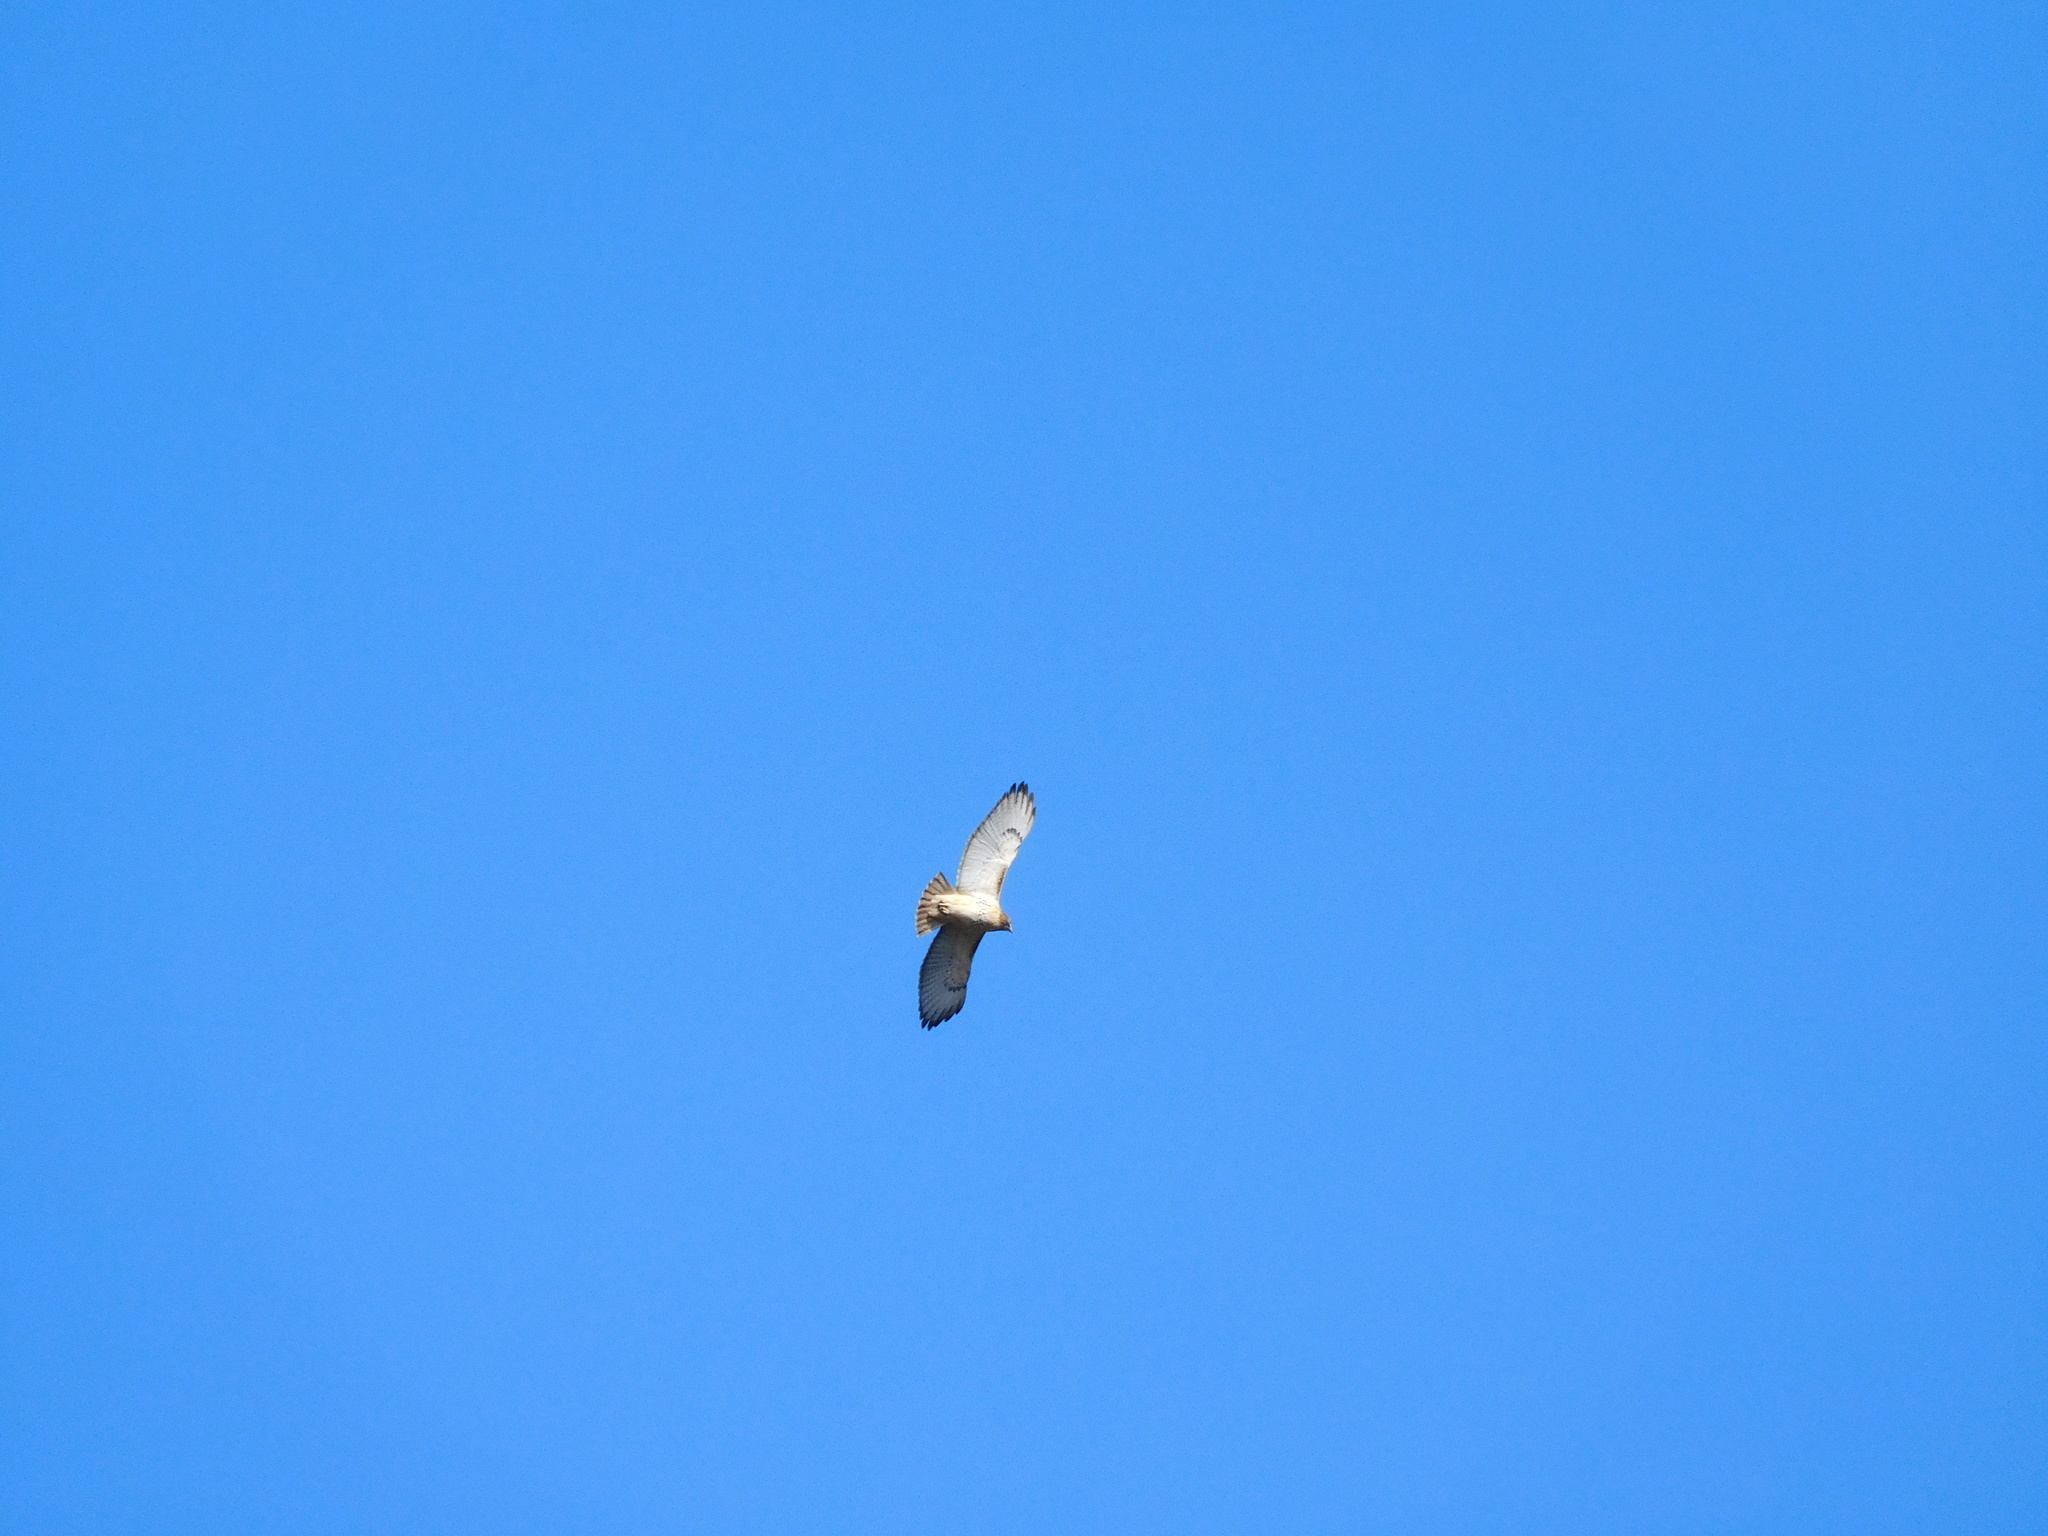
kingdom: Animalia
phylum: Chordata
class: Aves
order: Accipitriformes
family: Accipitridae
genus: Buteo
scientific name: Buteo jamaicensis
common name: Red-tailed hawk
